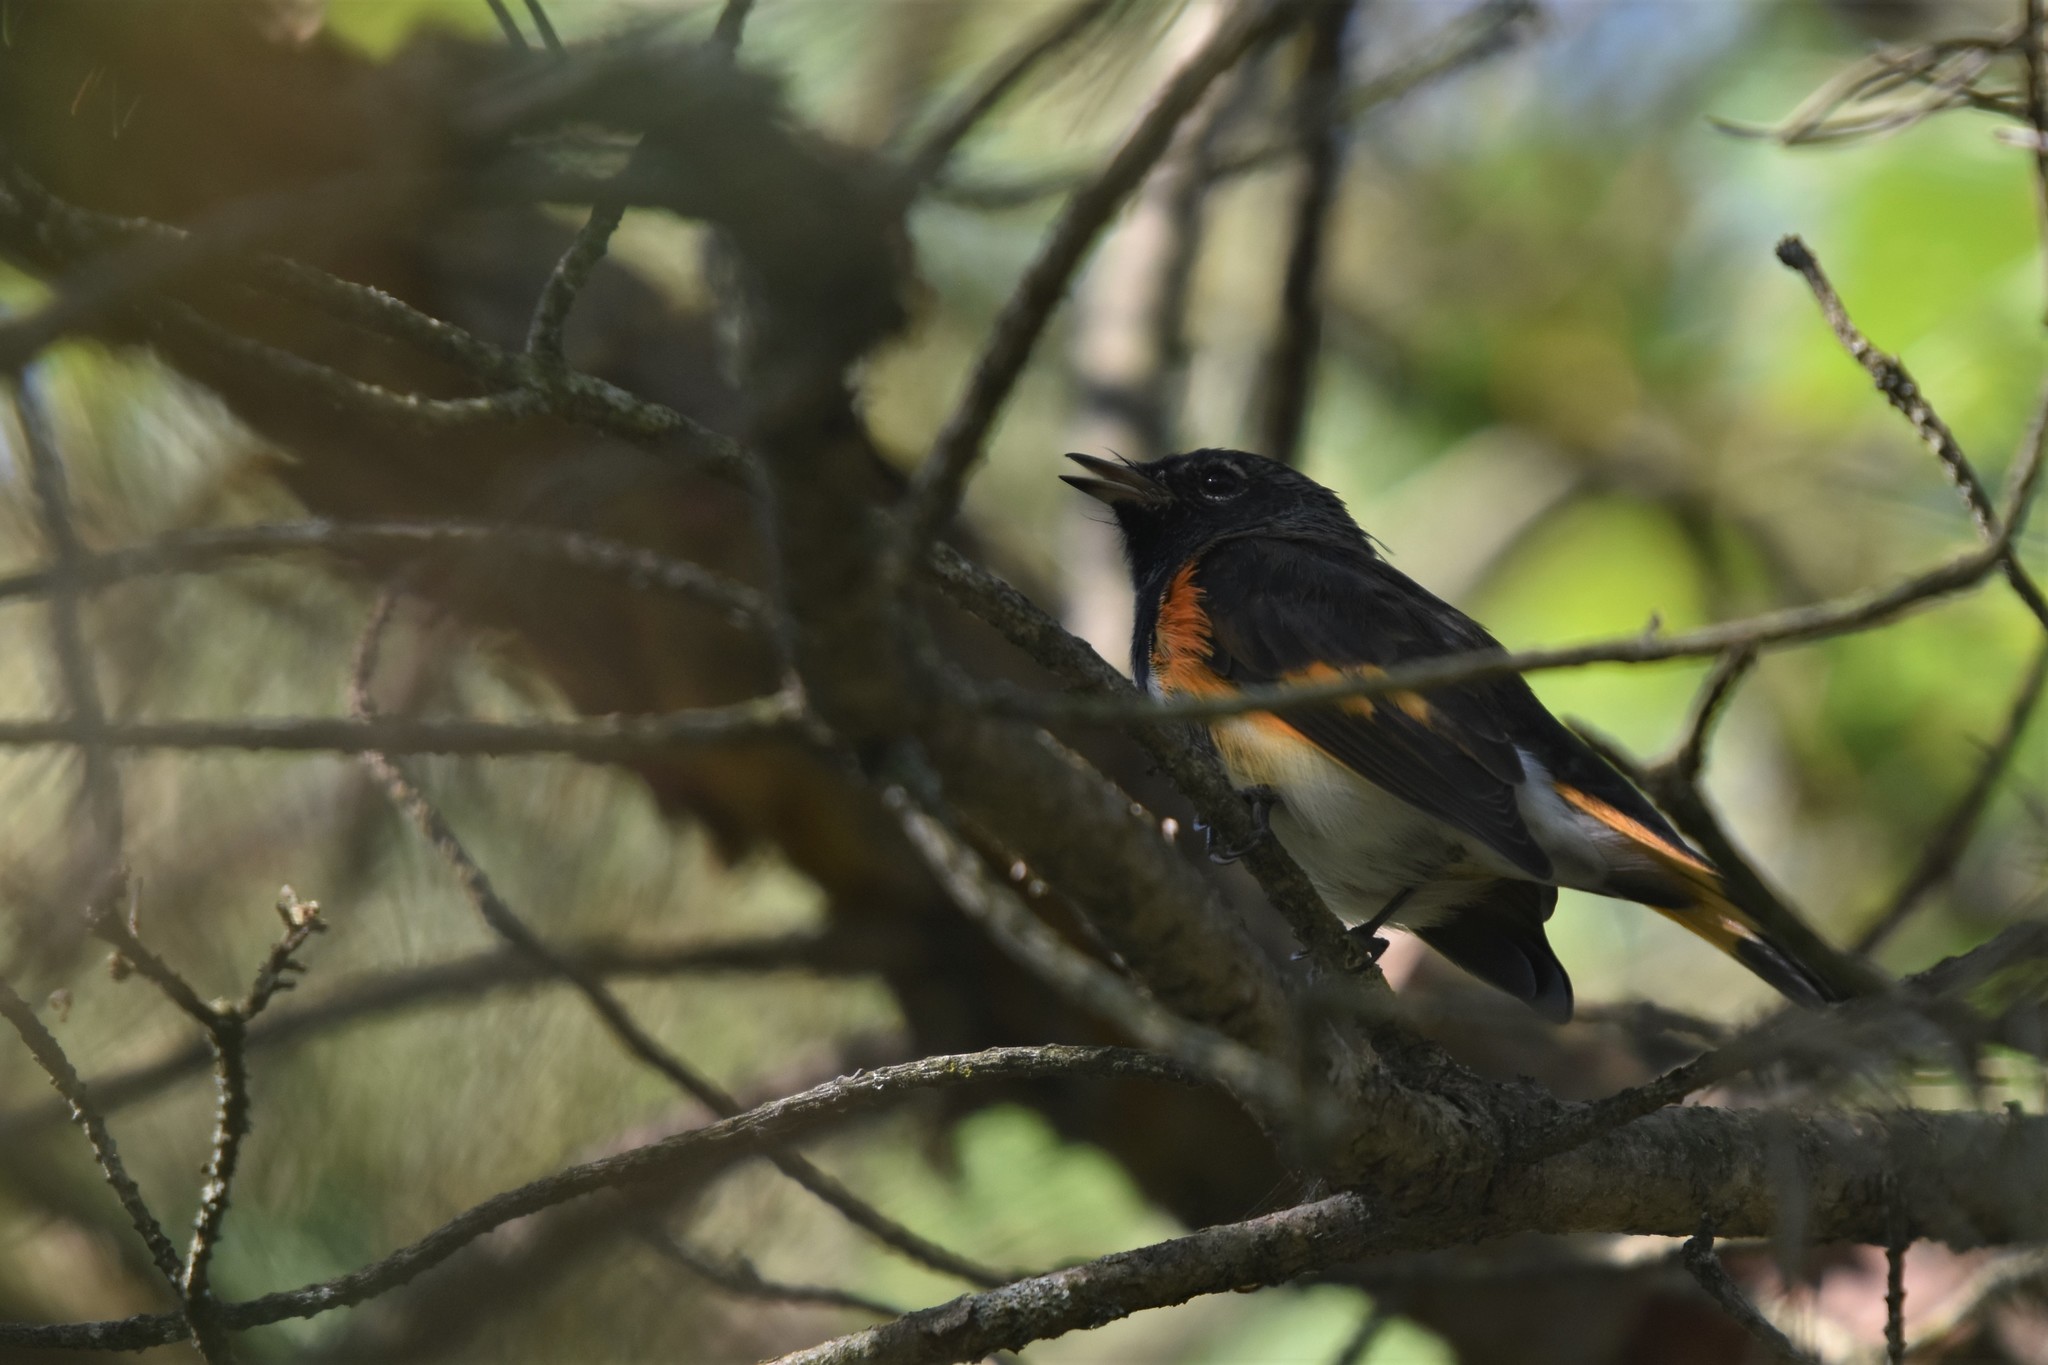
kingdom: Animalia
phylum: Chordata
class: Aves
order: Passeriformes
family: Parulidae
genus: Setophaga
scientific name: Setophaga ruticilla
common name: American redstart
